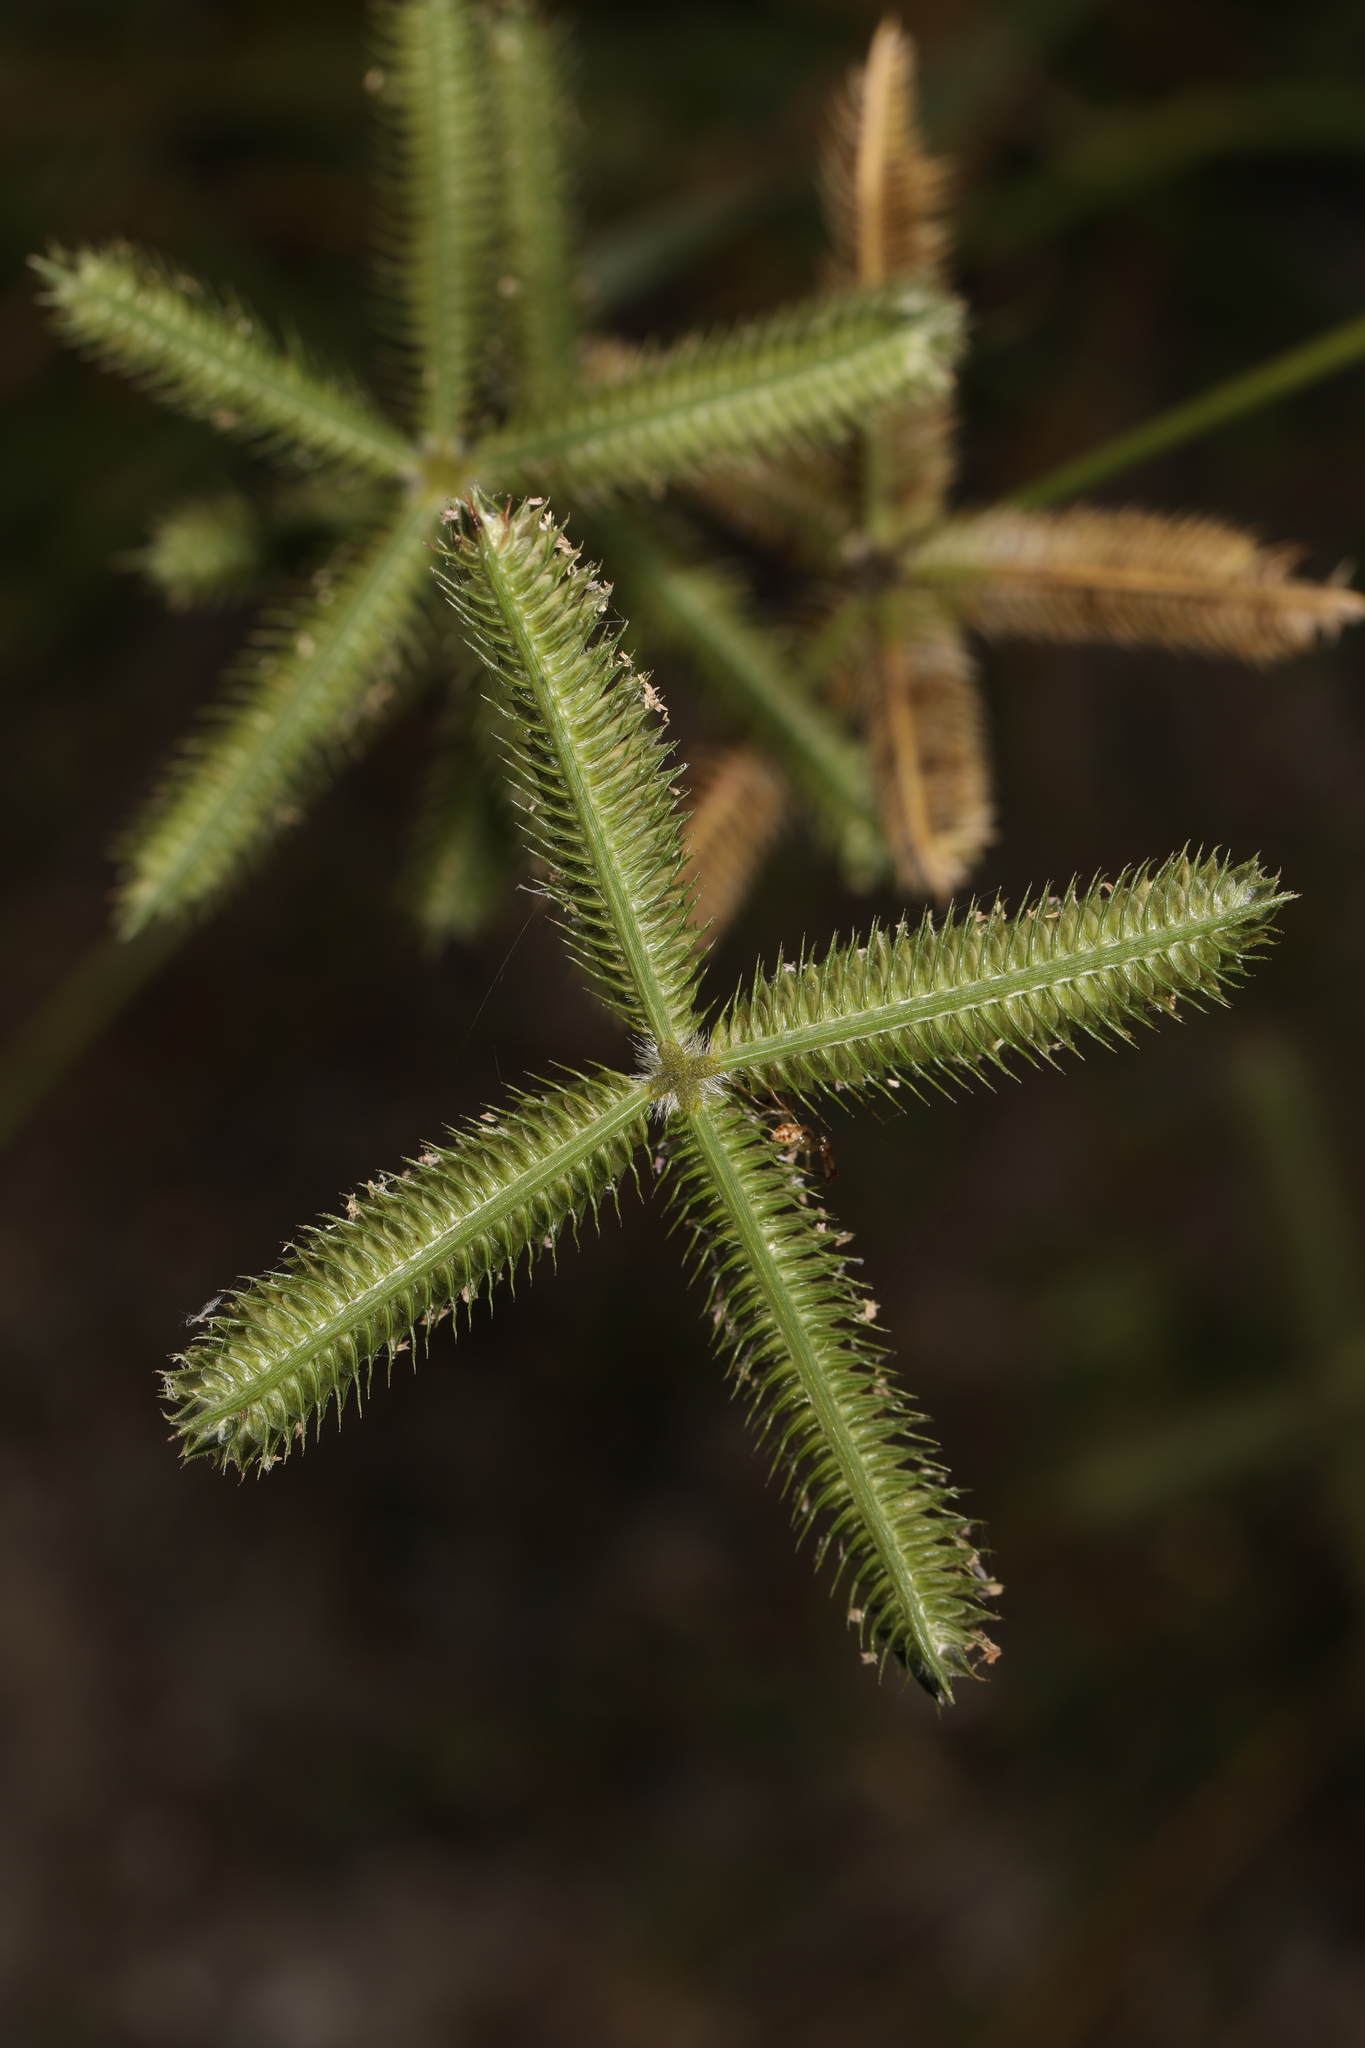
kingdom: Plantae
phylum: Tracheophyta
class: Liliopsida
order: Poales
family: Poaceae
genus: Dactyloctenium
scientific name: Dactyloctenium aegyptium
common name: Egyptian grass
